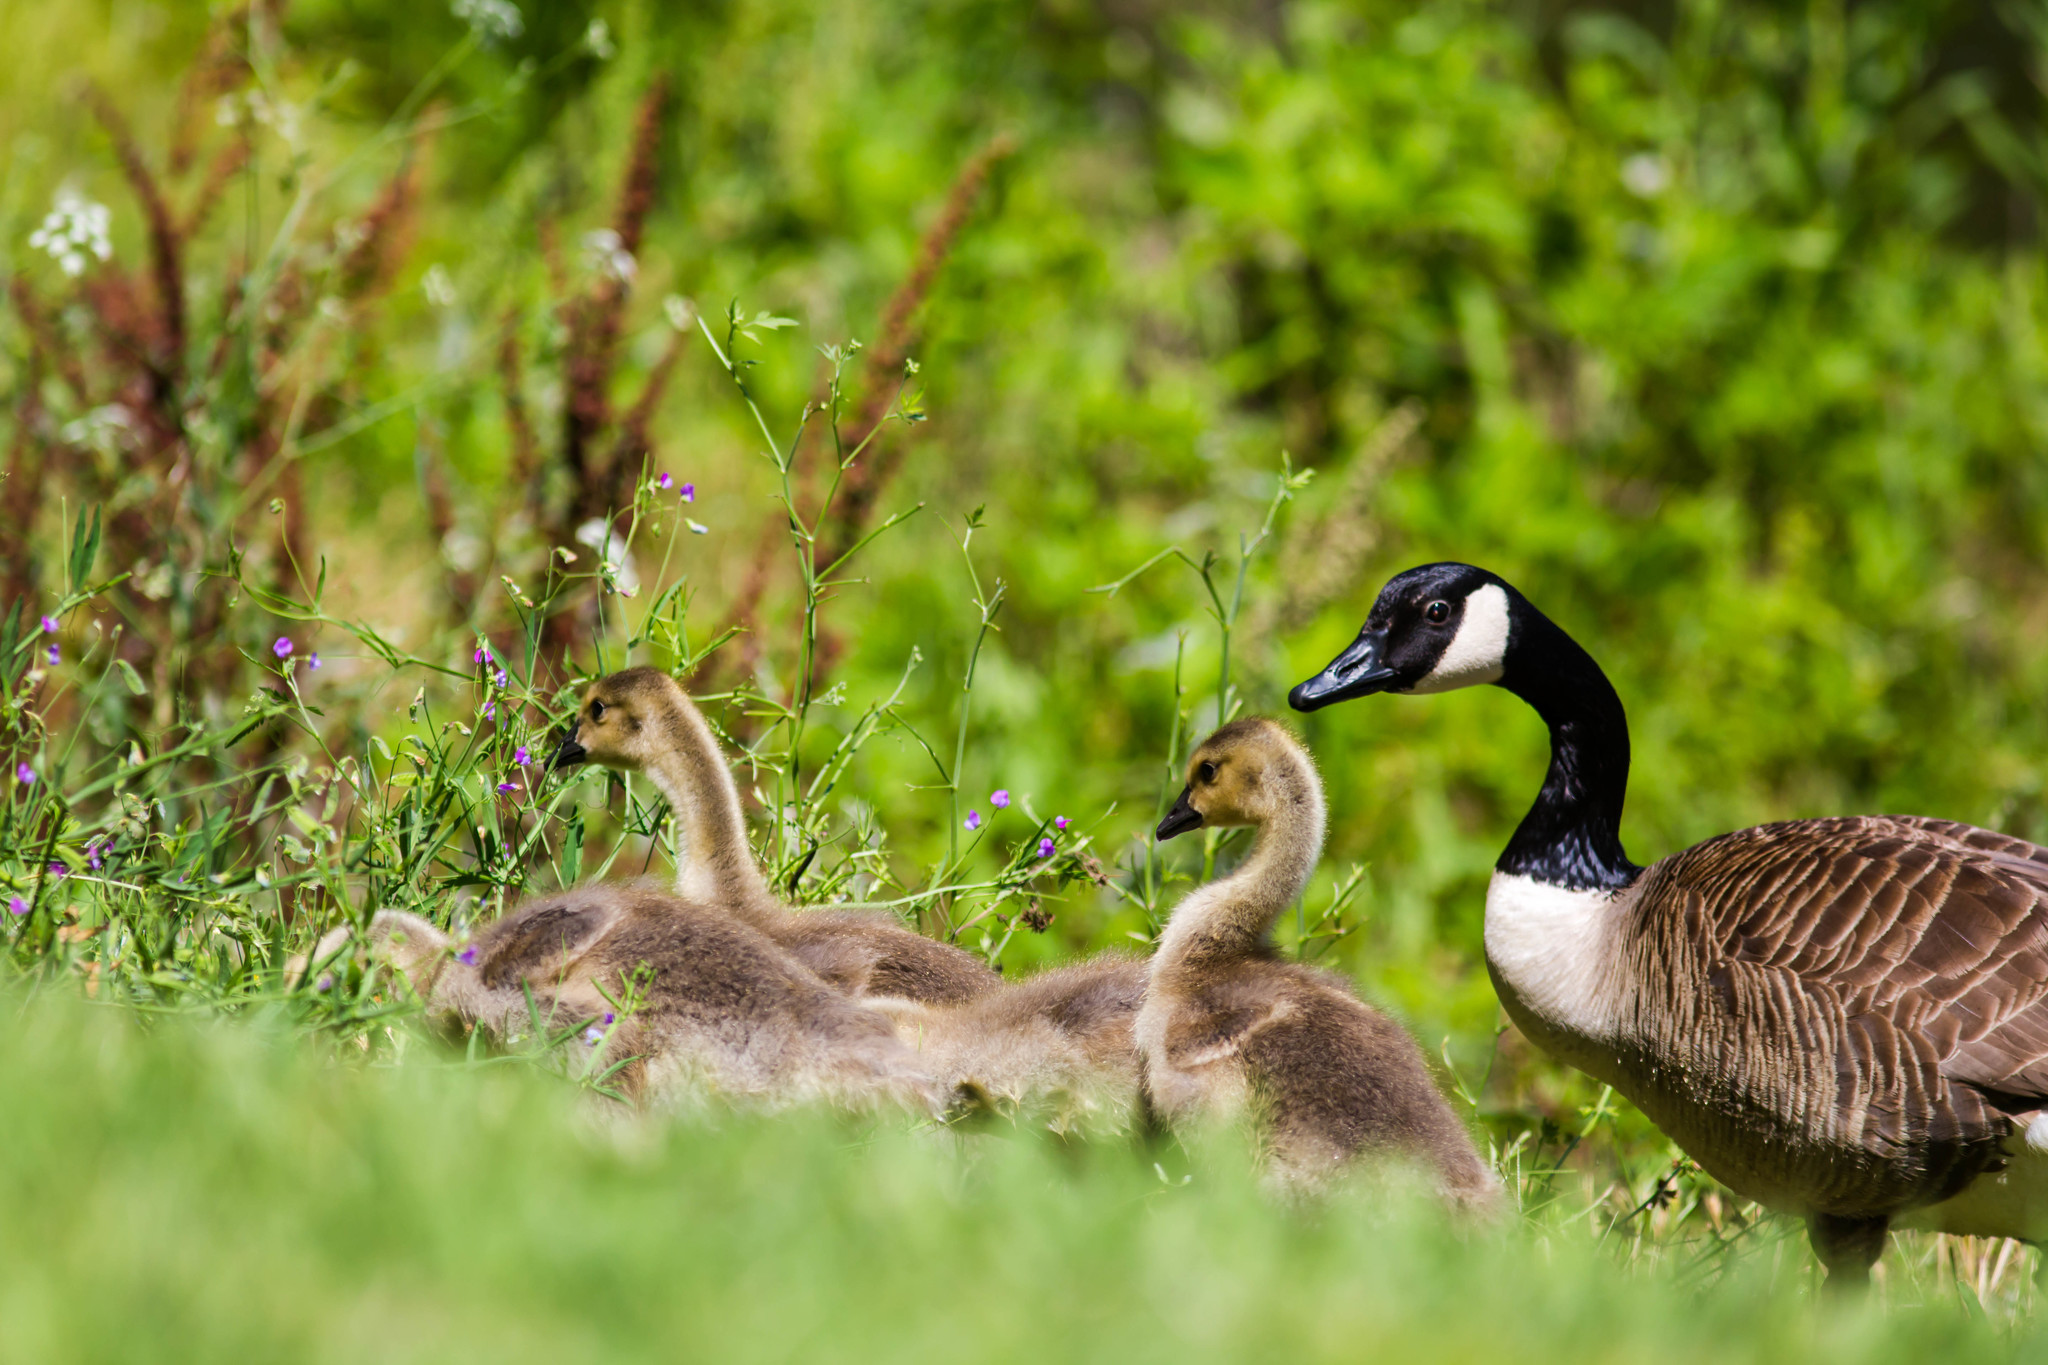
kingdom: Animalia
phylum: Chordata
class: Aves
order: Anseriformes
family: Anatidae
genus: Branta
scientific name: Branta canadensis
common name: Canada goose
